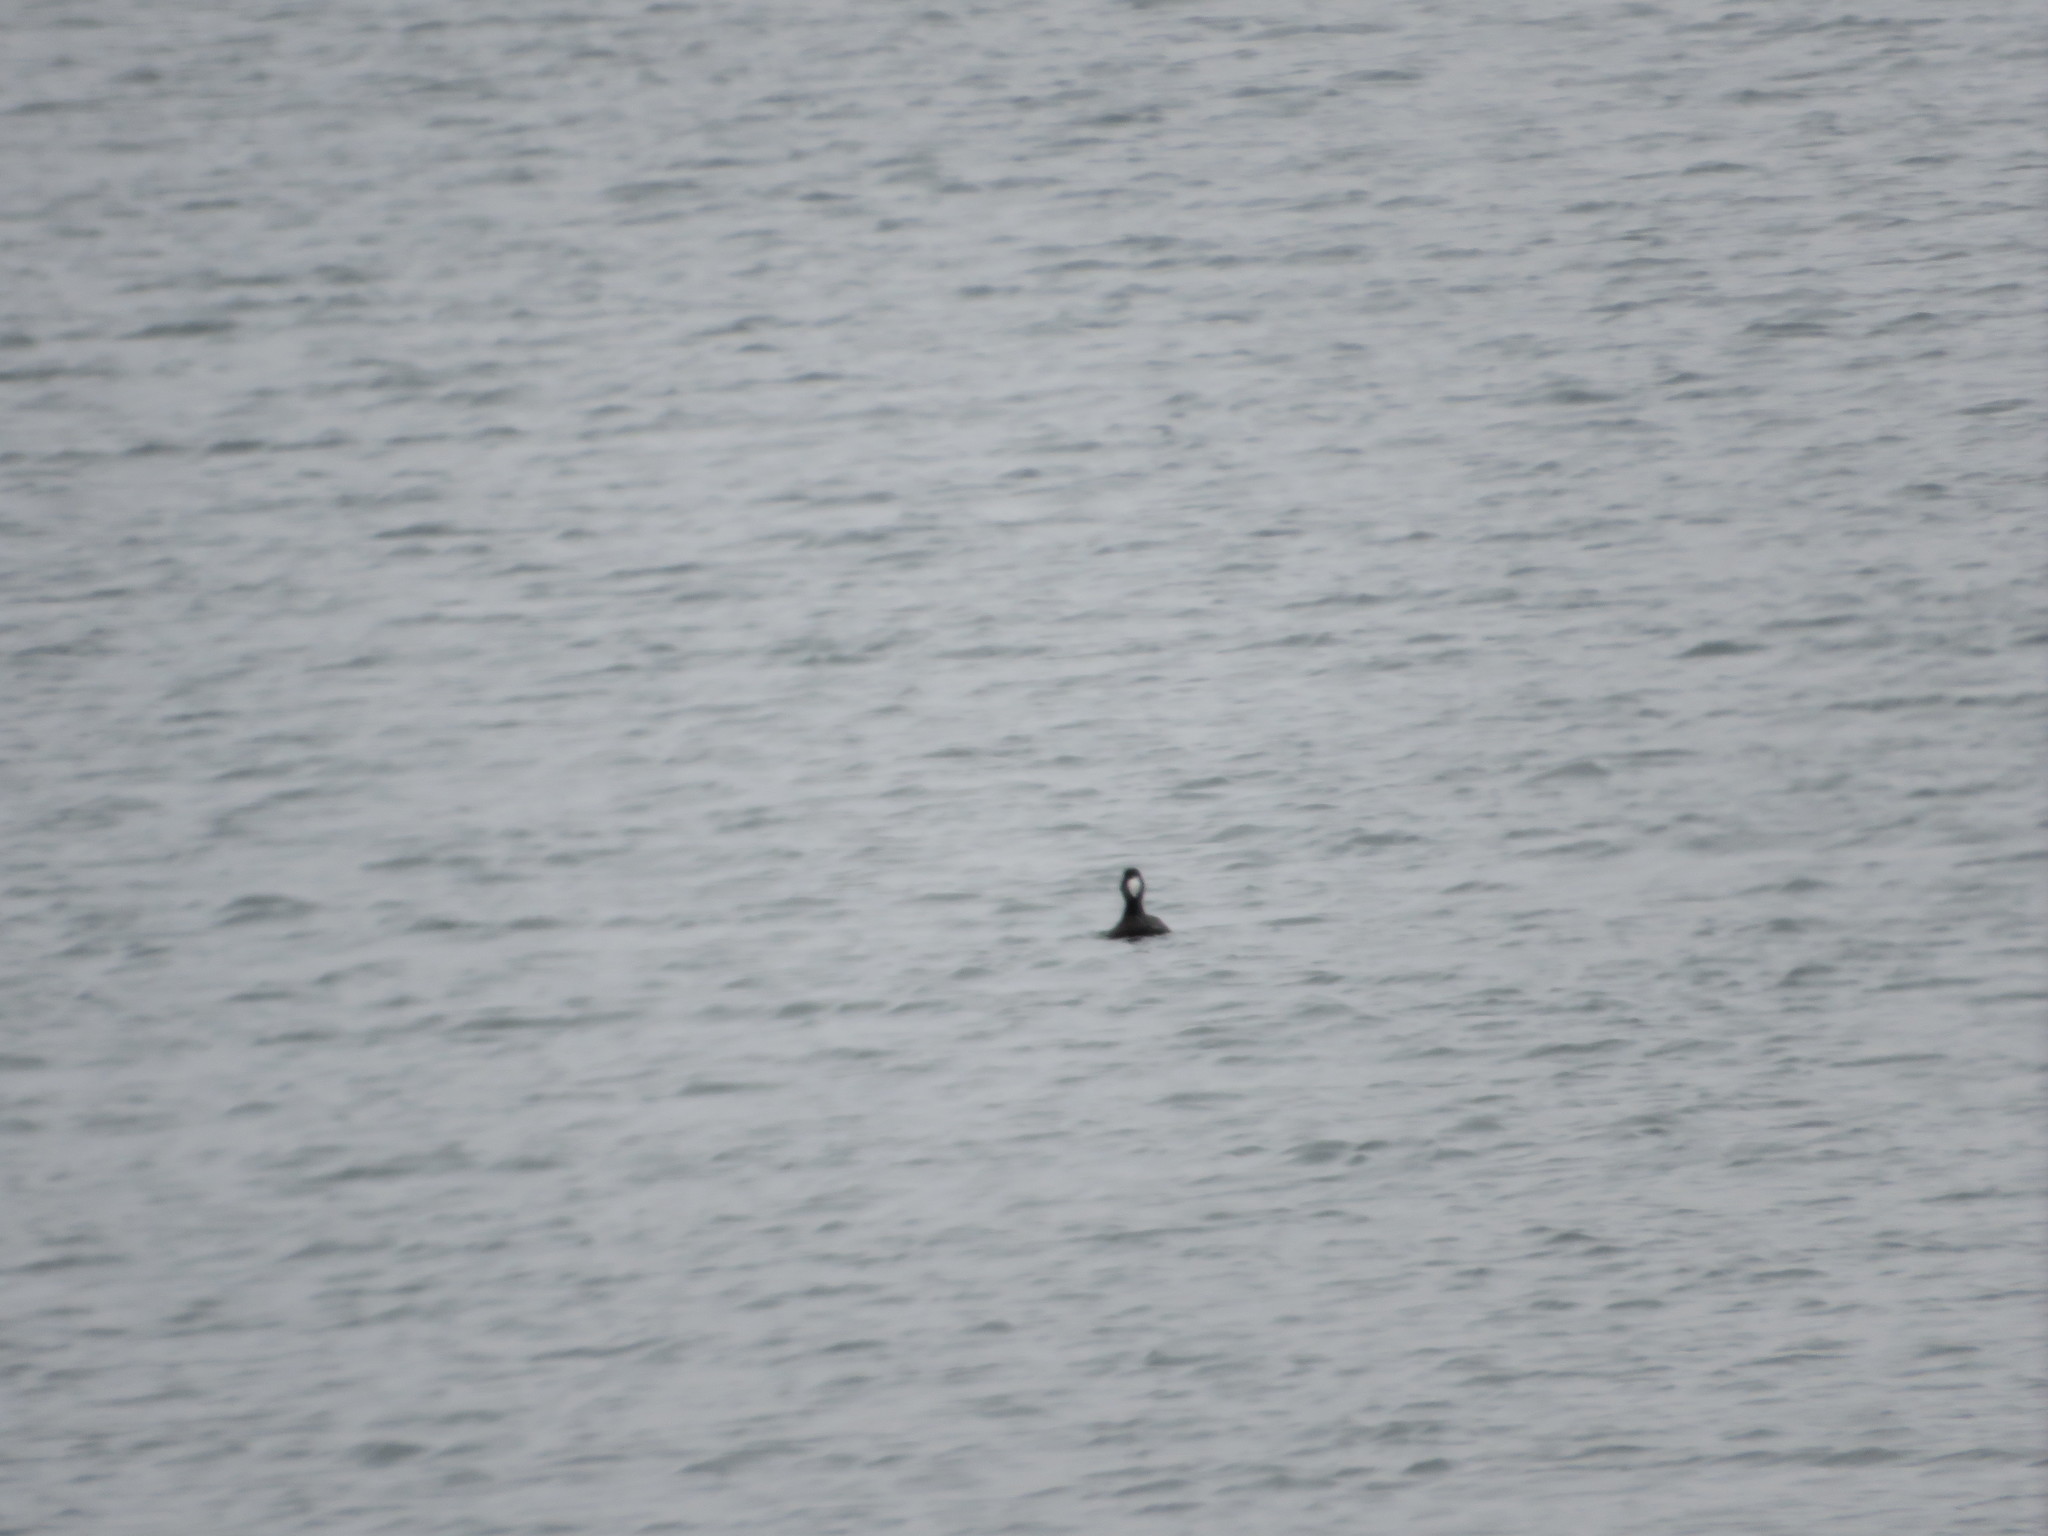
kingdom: Animalia
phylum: Chordata
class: Aves
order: Anseriformes
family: Anatidae
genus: Melanitta
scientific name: Melanitta perspicillata
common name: Surf scoter
